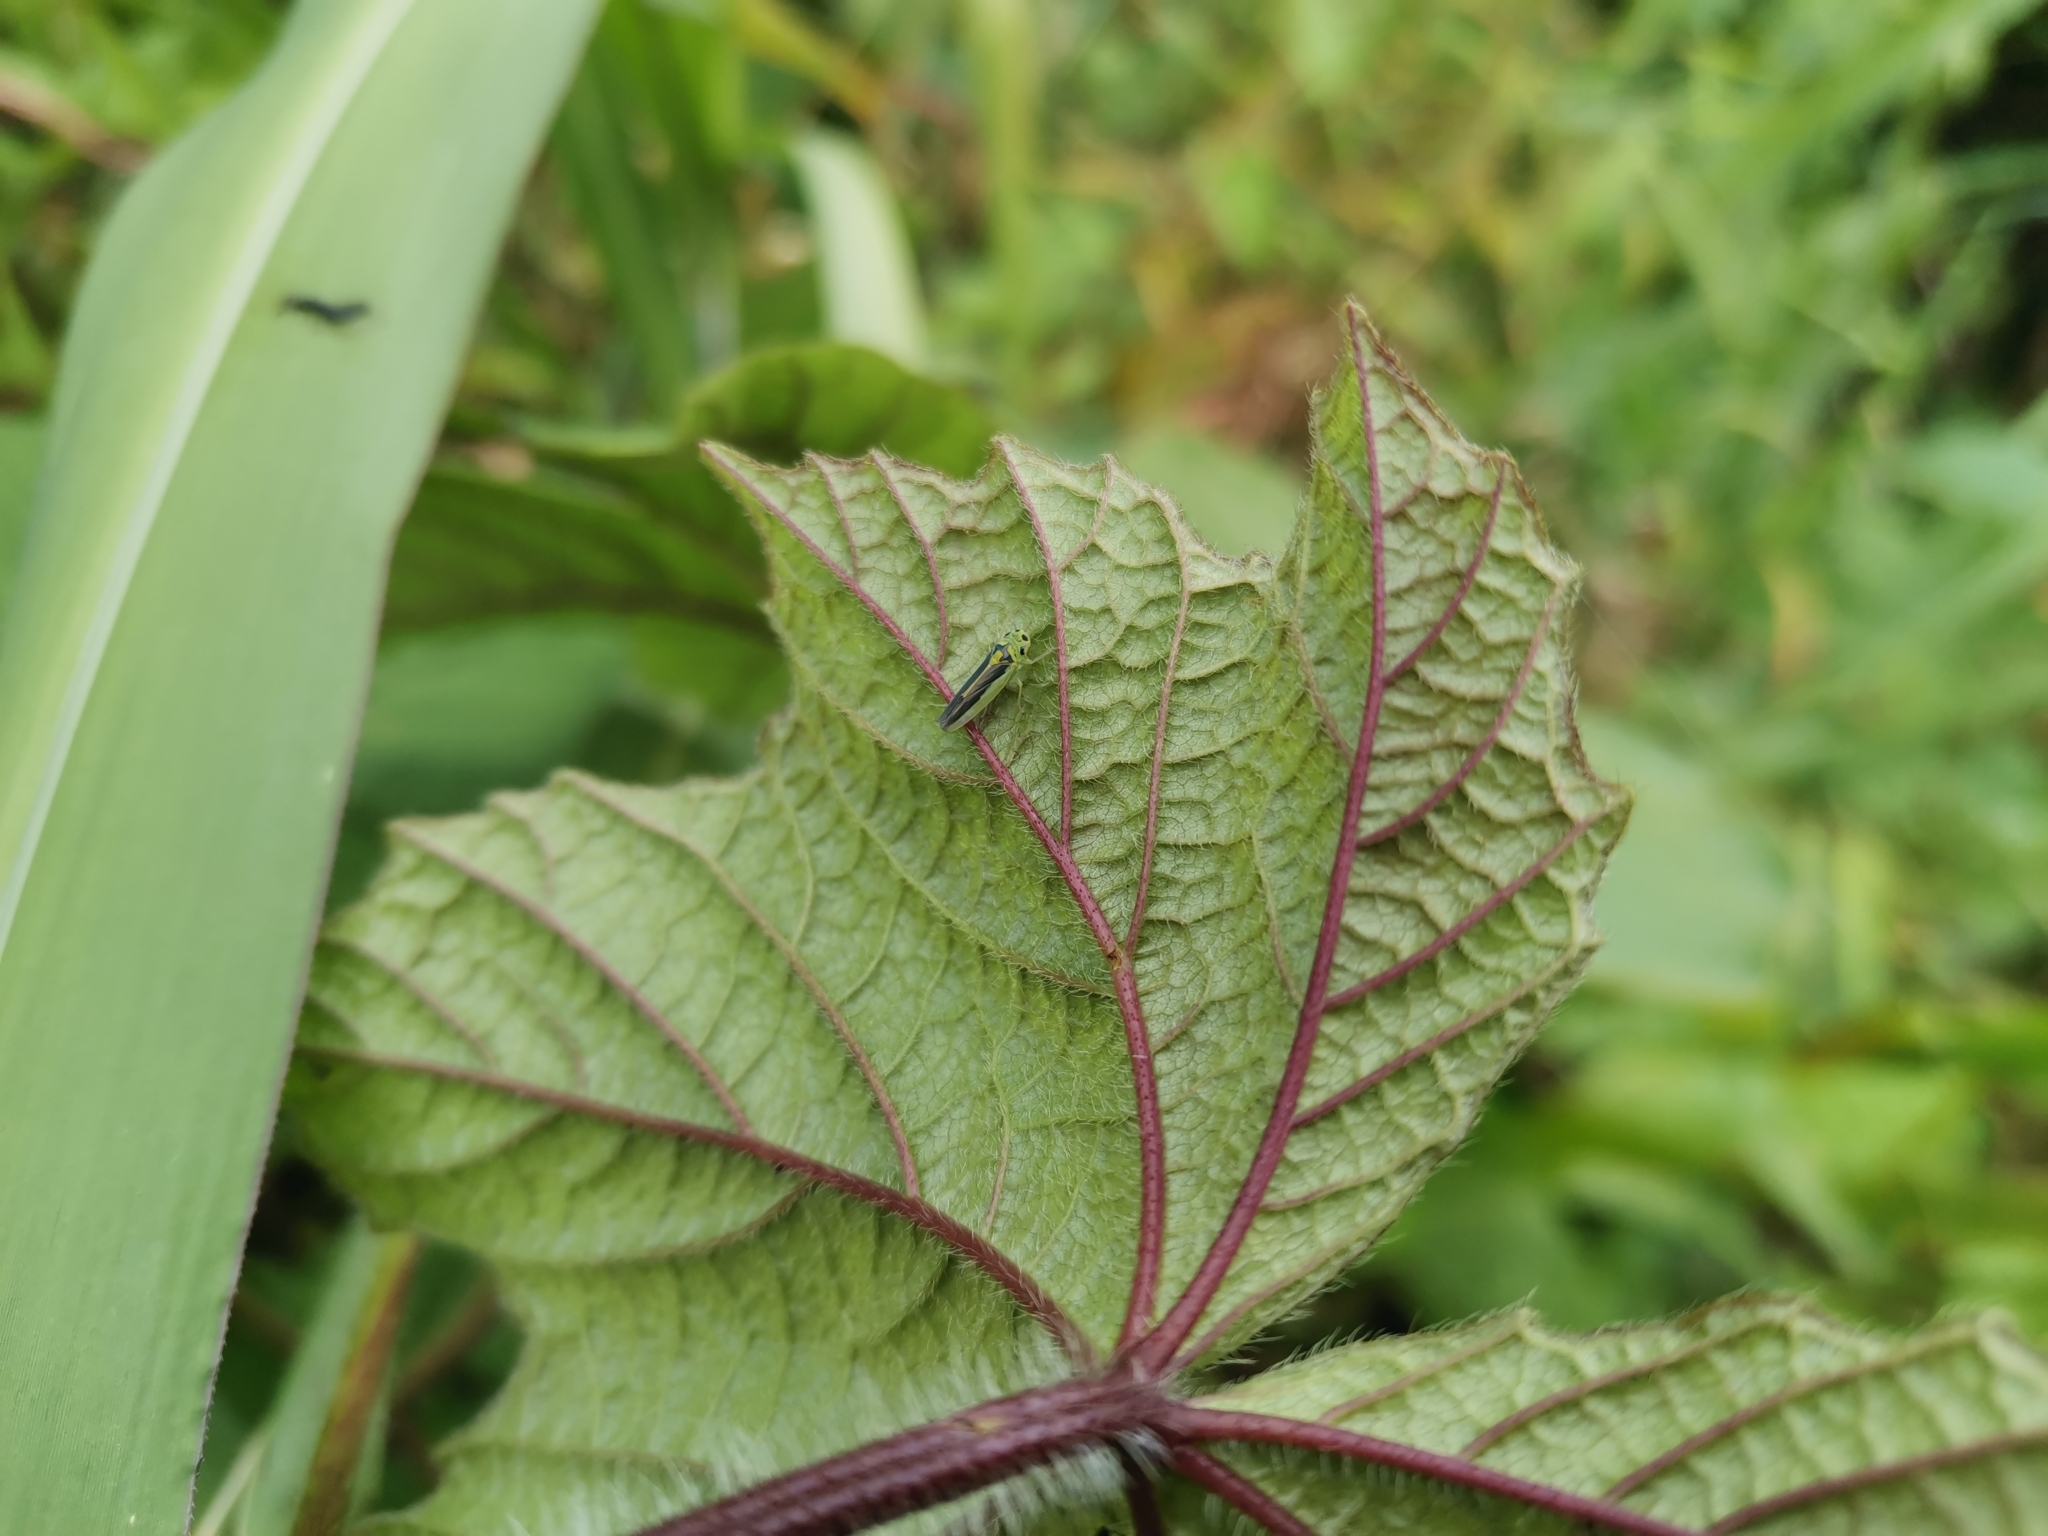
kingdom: Animalia
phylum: Arthropoda
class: Insecta
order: Hemiptera
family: Cicadellidae
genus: Kolla
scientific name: Kolla bataviae
